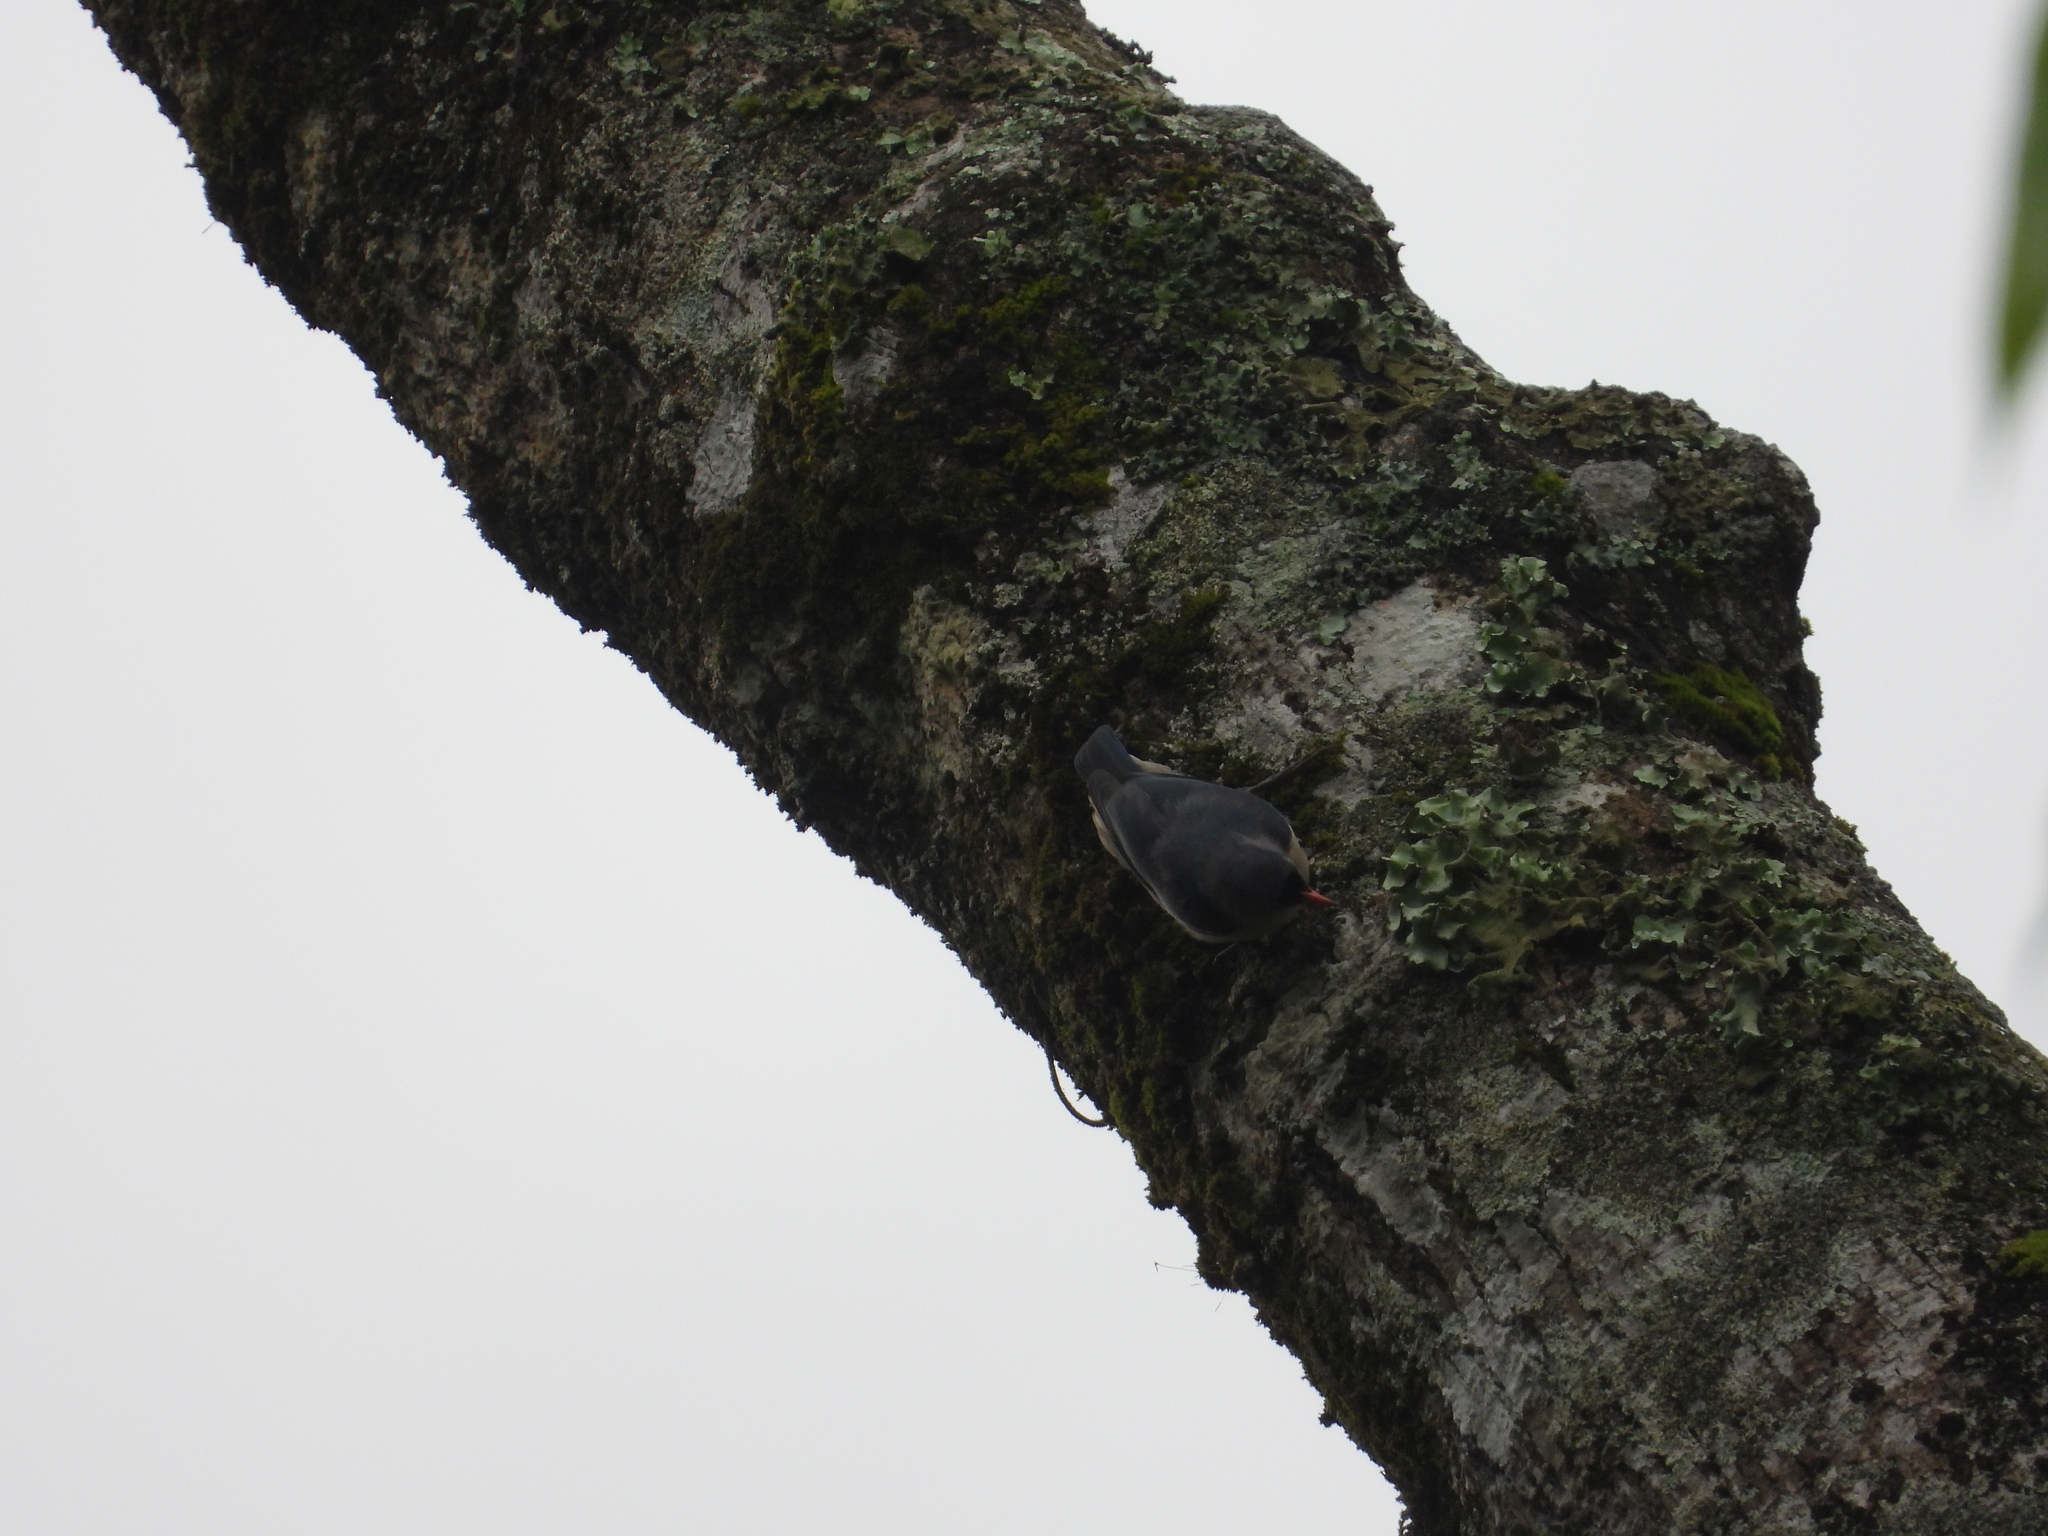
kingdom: Animalia
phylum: Chordata
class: Aves
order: Passeriformes
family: Sittidae
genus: Sitta
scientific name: Sitta frontalis
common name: Velvet-fronted nuthatch
